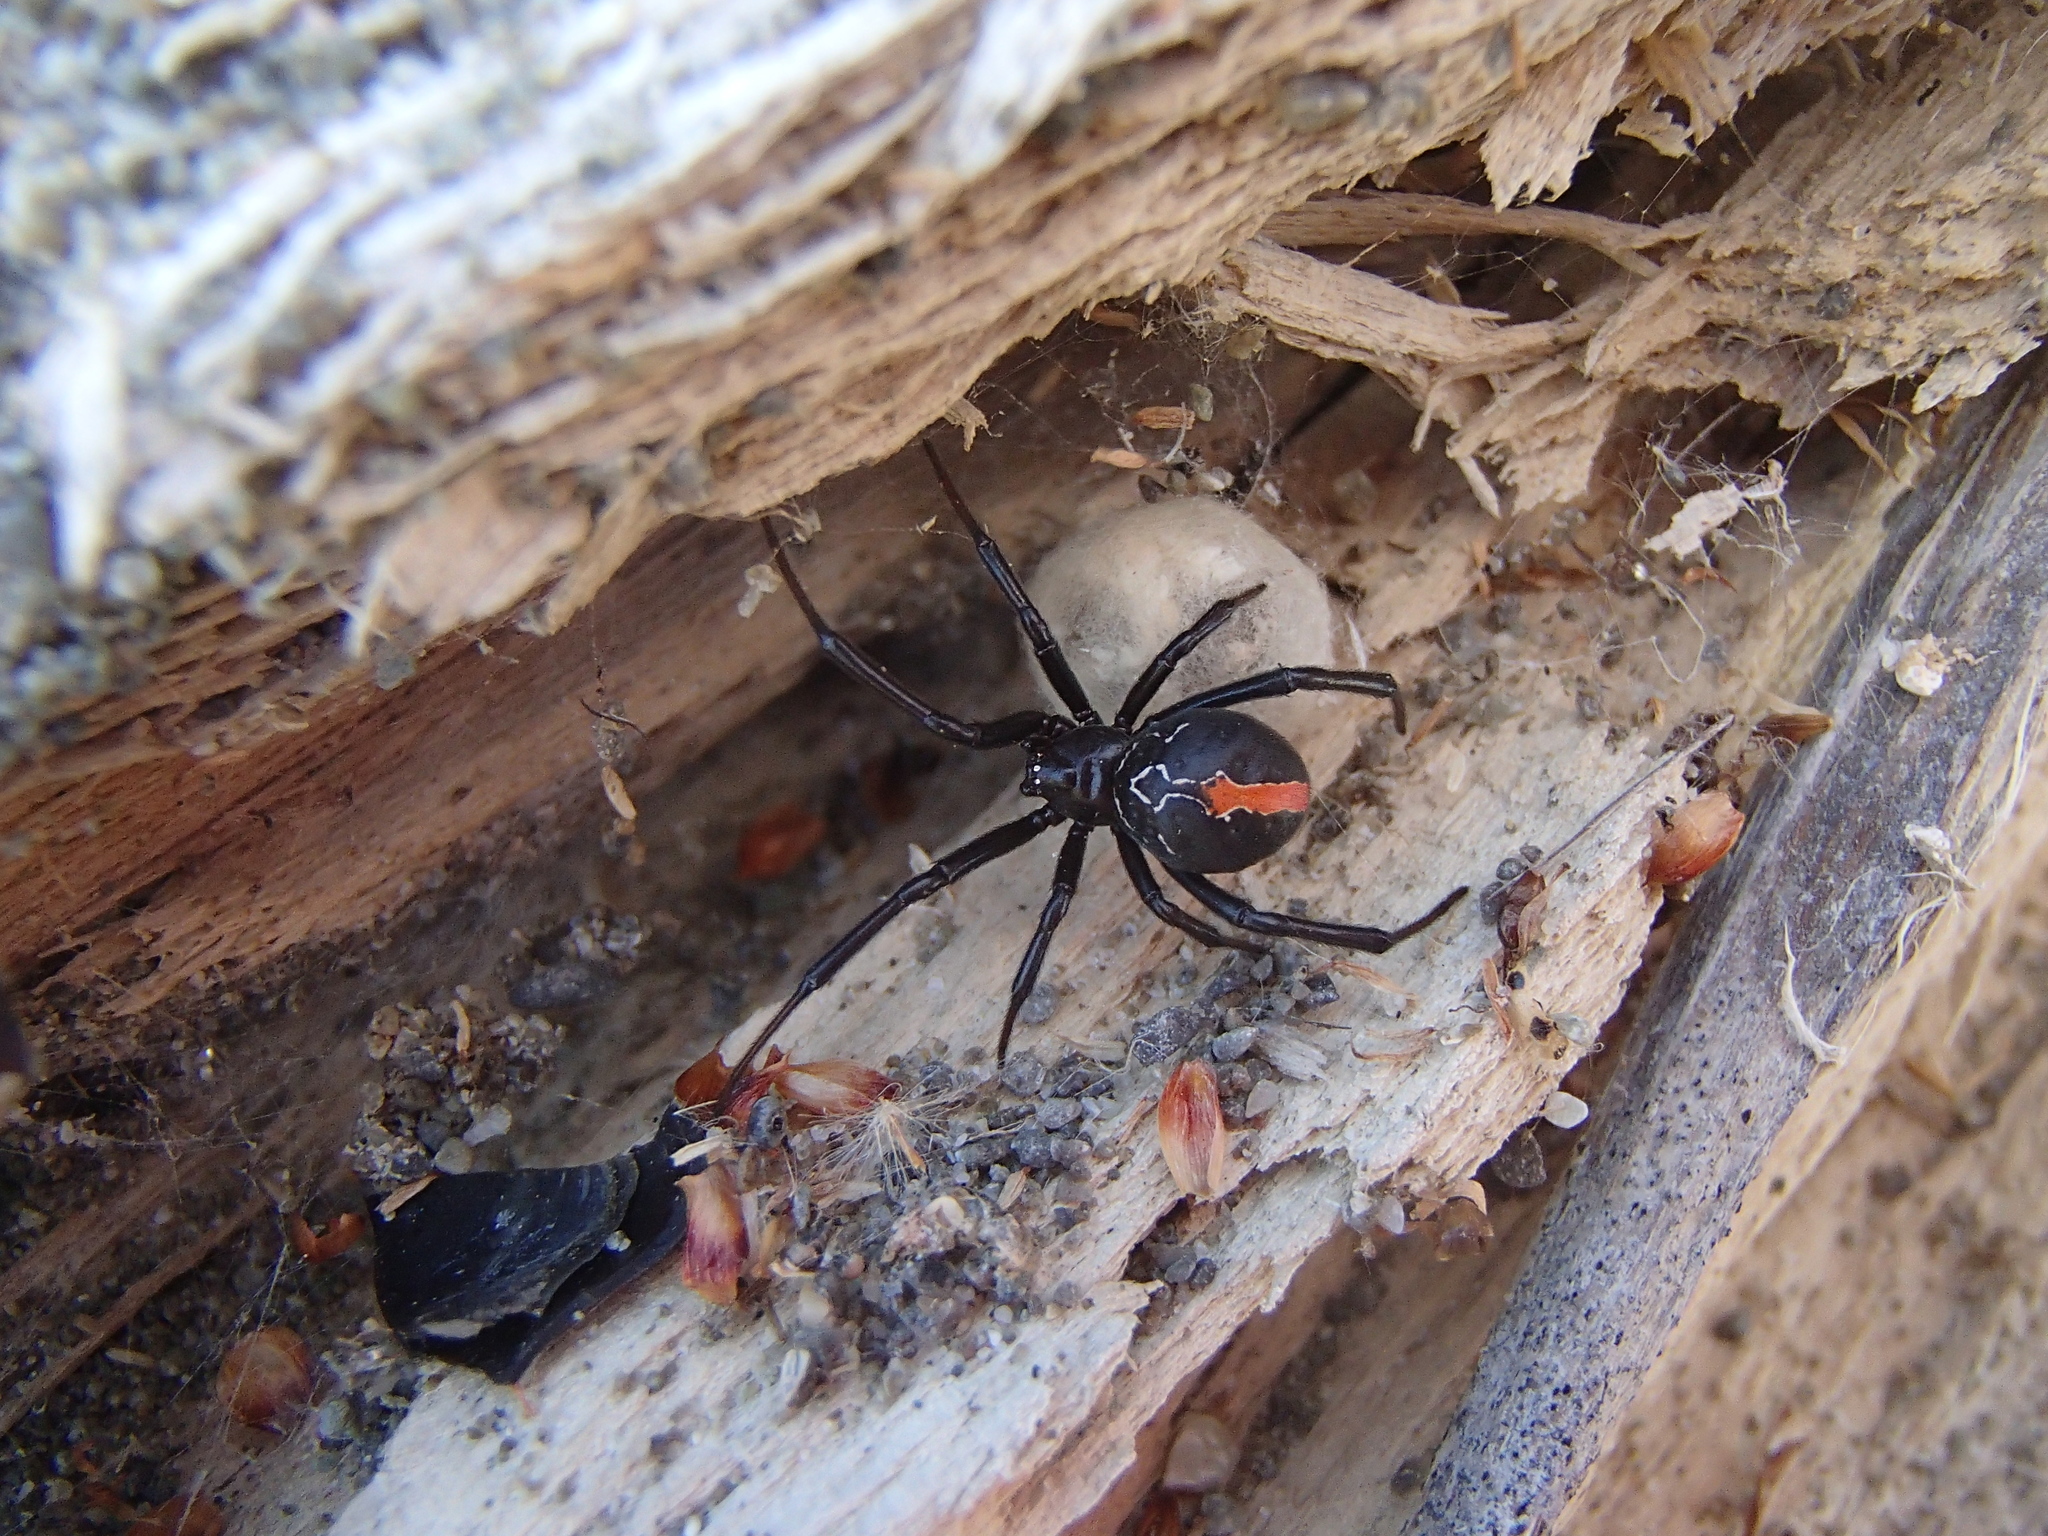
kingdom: Animalia
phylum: Arthropoda
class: Arachnida
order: Araneae
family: Theridiidae
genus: Latrodectus
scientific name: Latrodectus katipo
